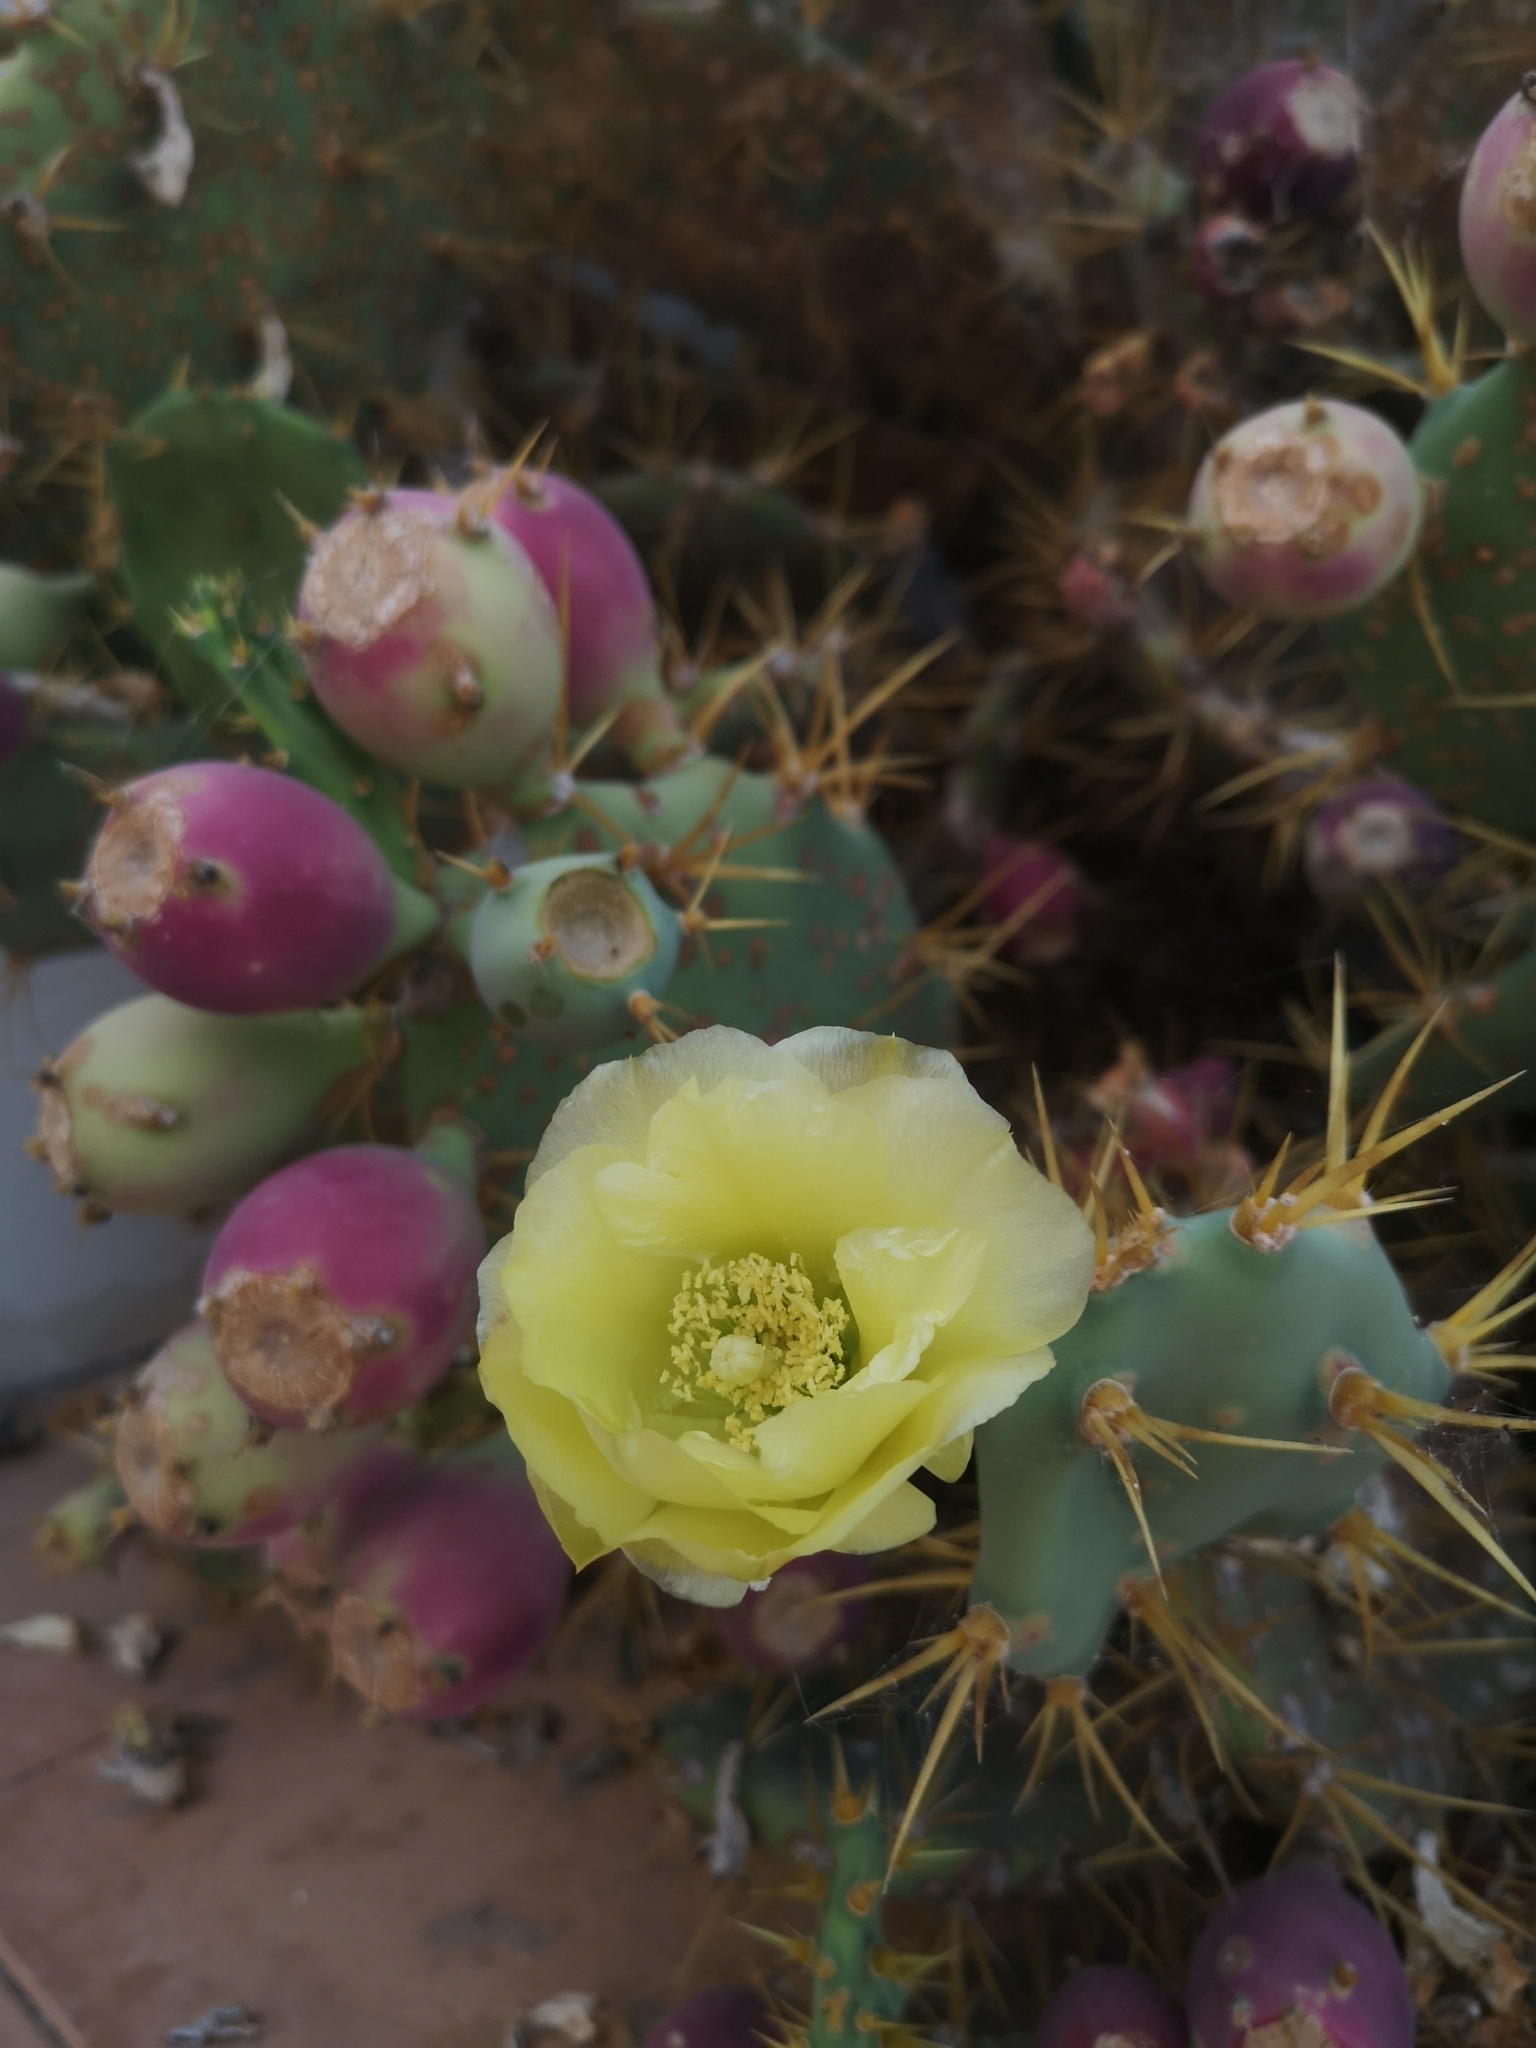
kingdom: Plantae
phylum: Tracheophyta
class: Magnoliopsida
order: Caryophyllales
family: Cactaceae
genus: Opuntia
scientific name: Opuntia stricta
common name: Erect pricklypear
